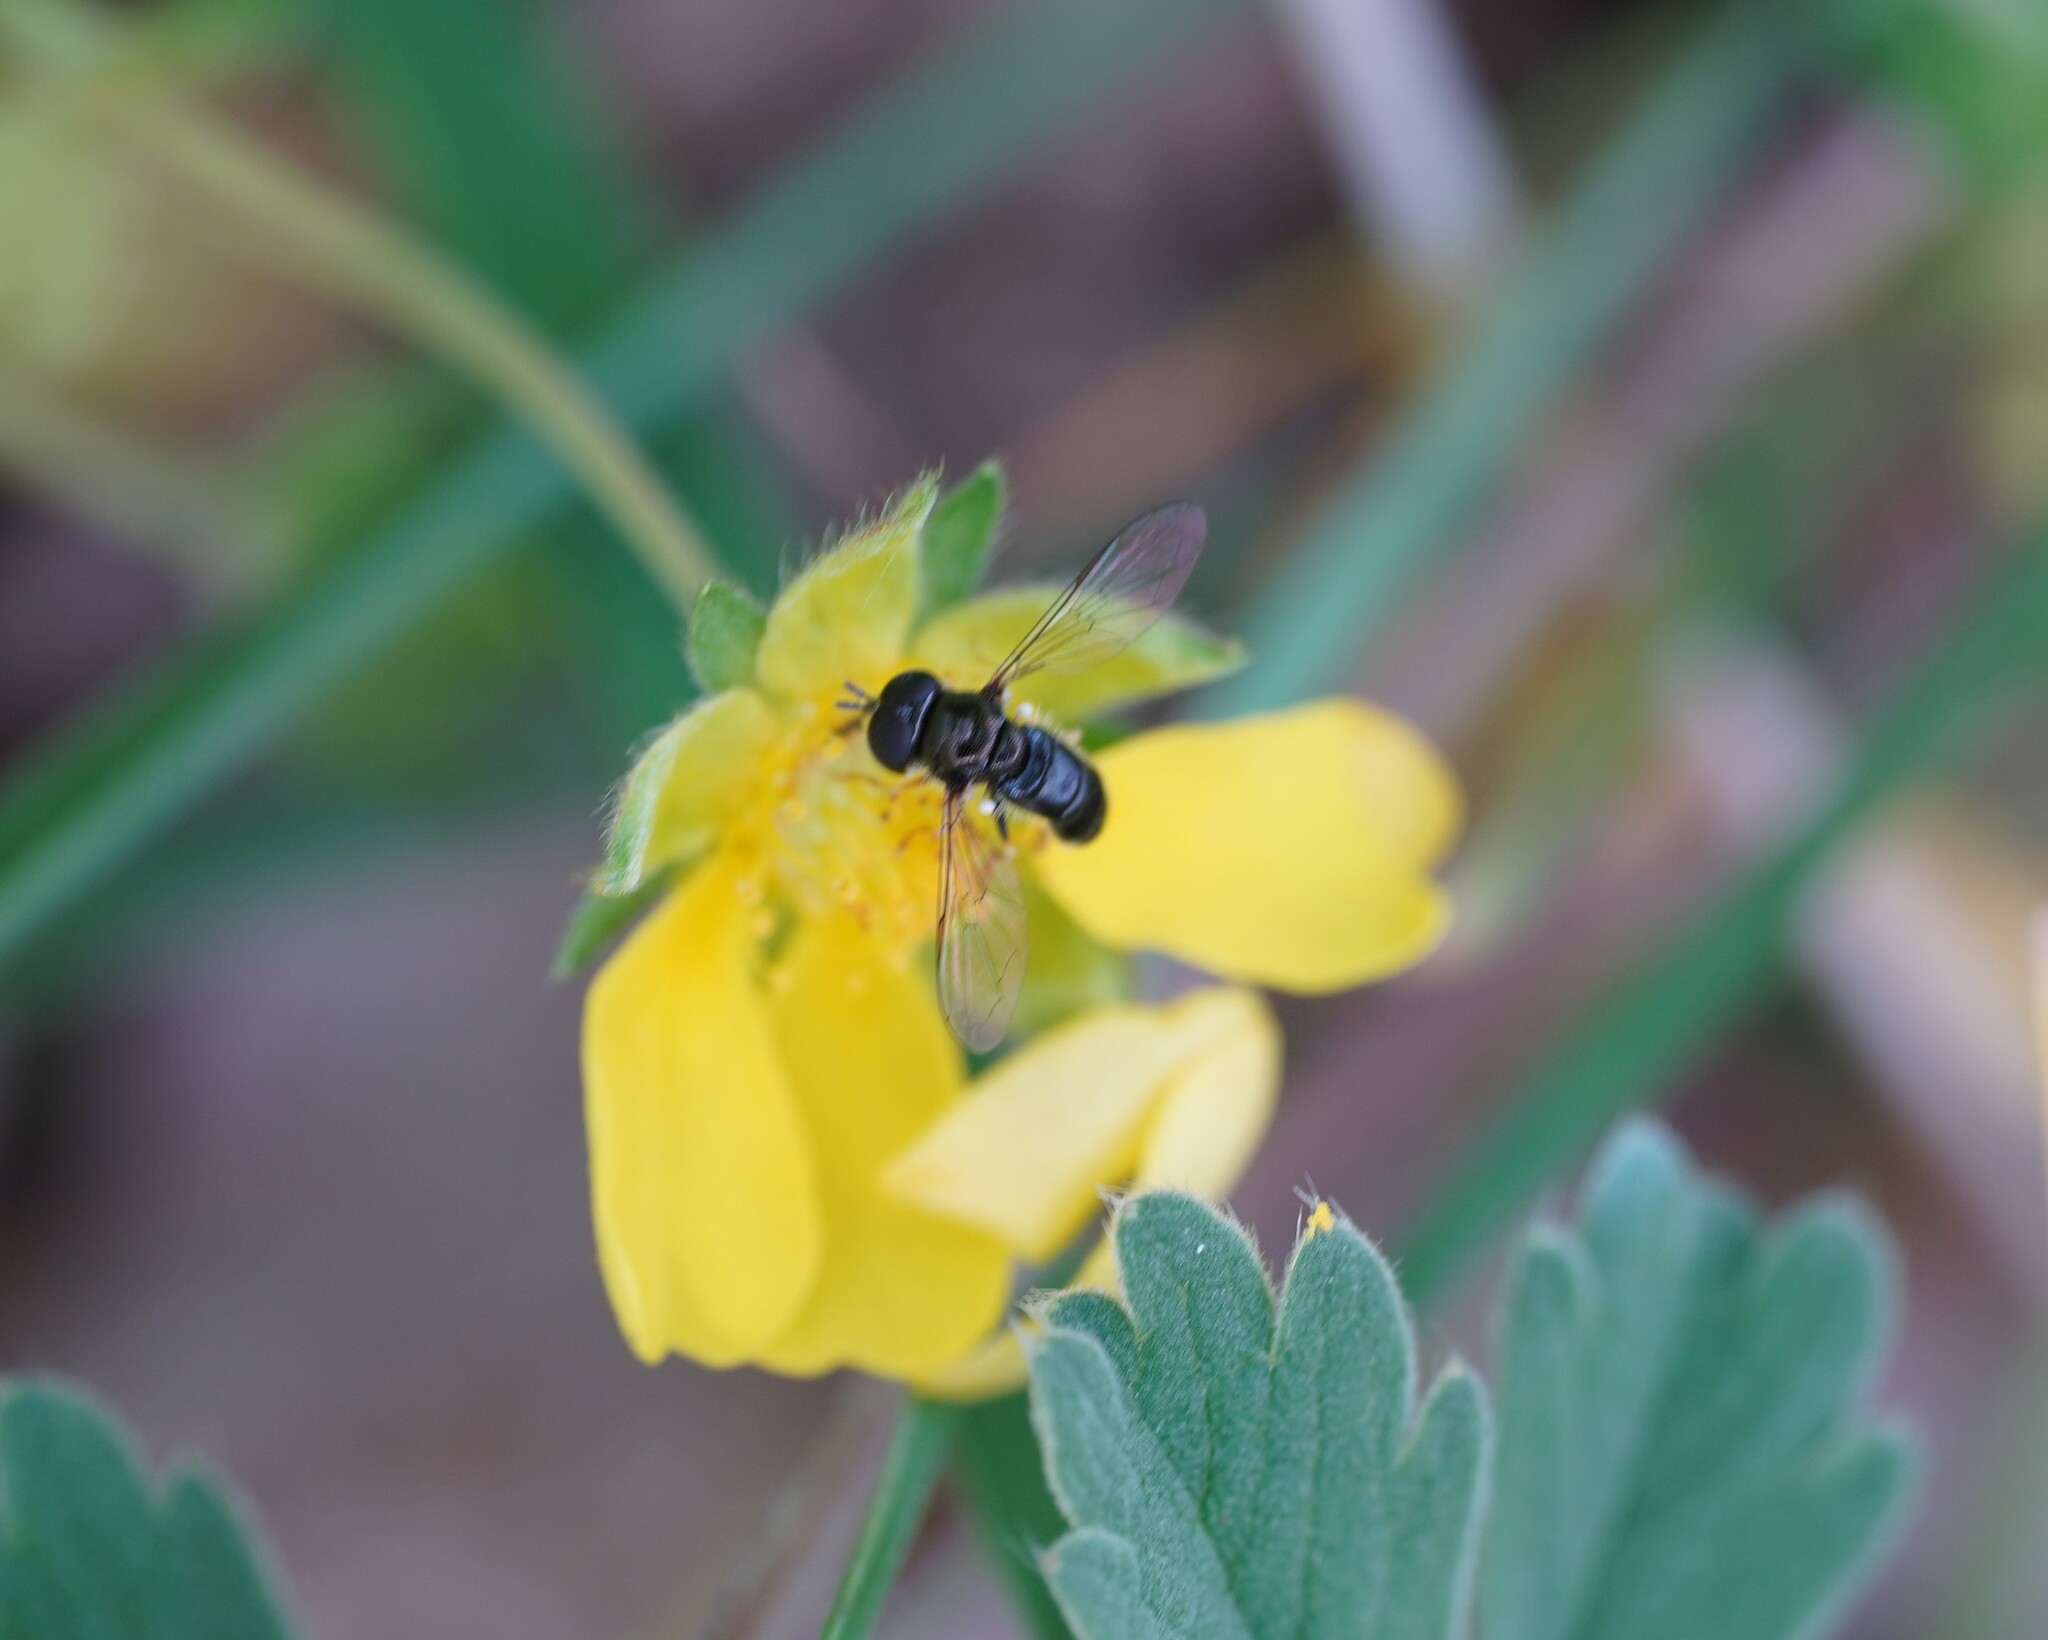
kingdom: Animalia
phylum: Arthropoda
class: Insecta
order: Diptera
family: Syrphidae
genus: Paragus
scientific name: Paragus
